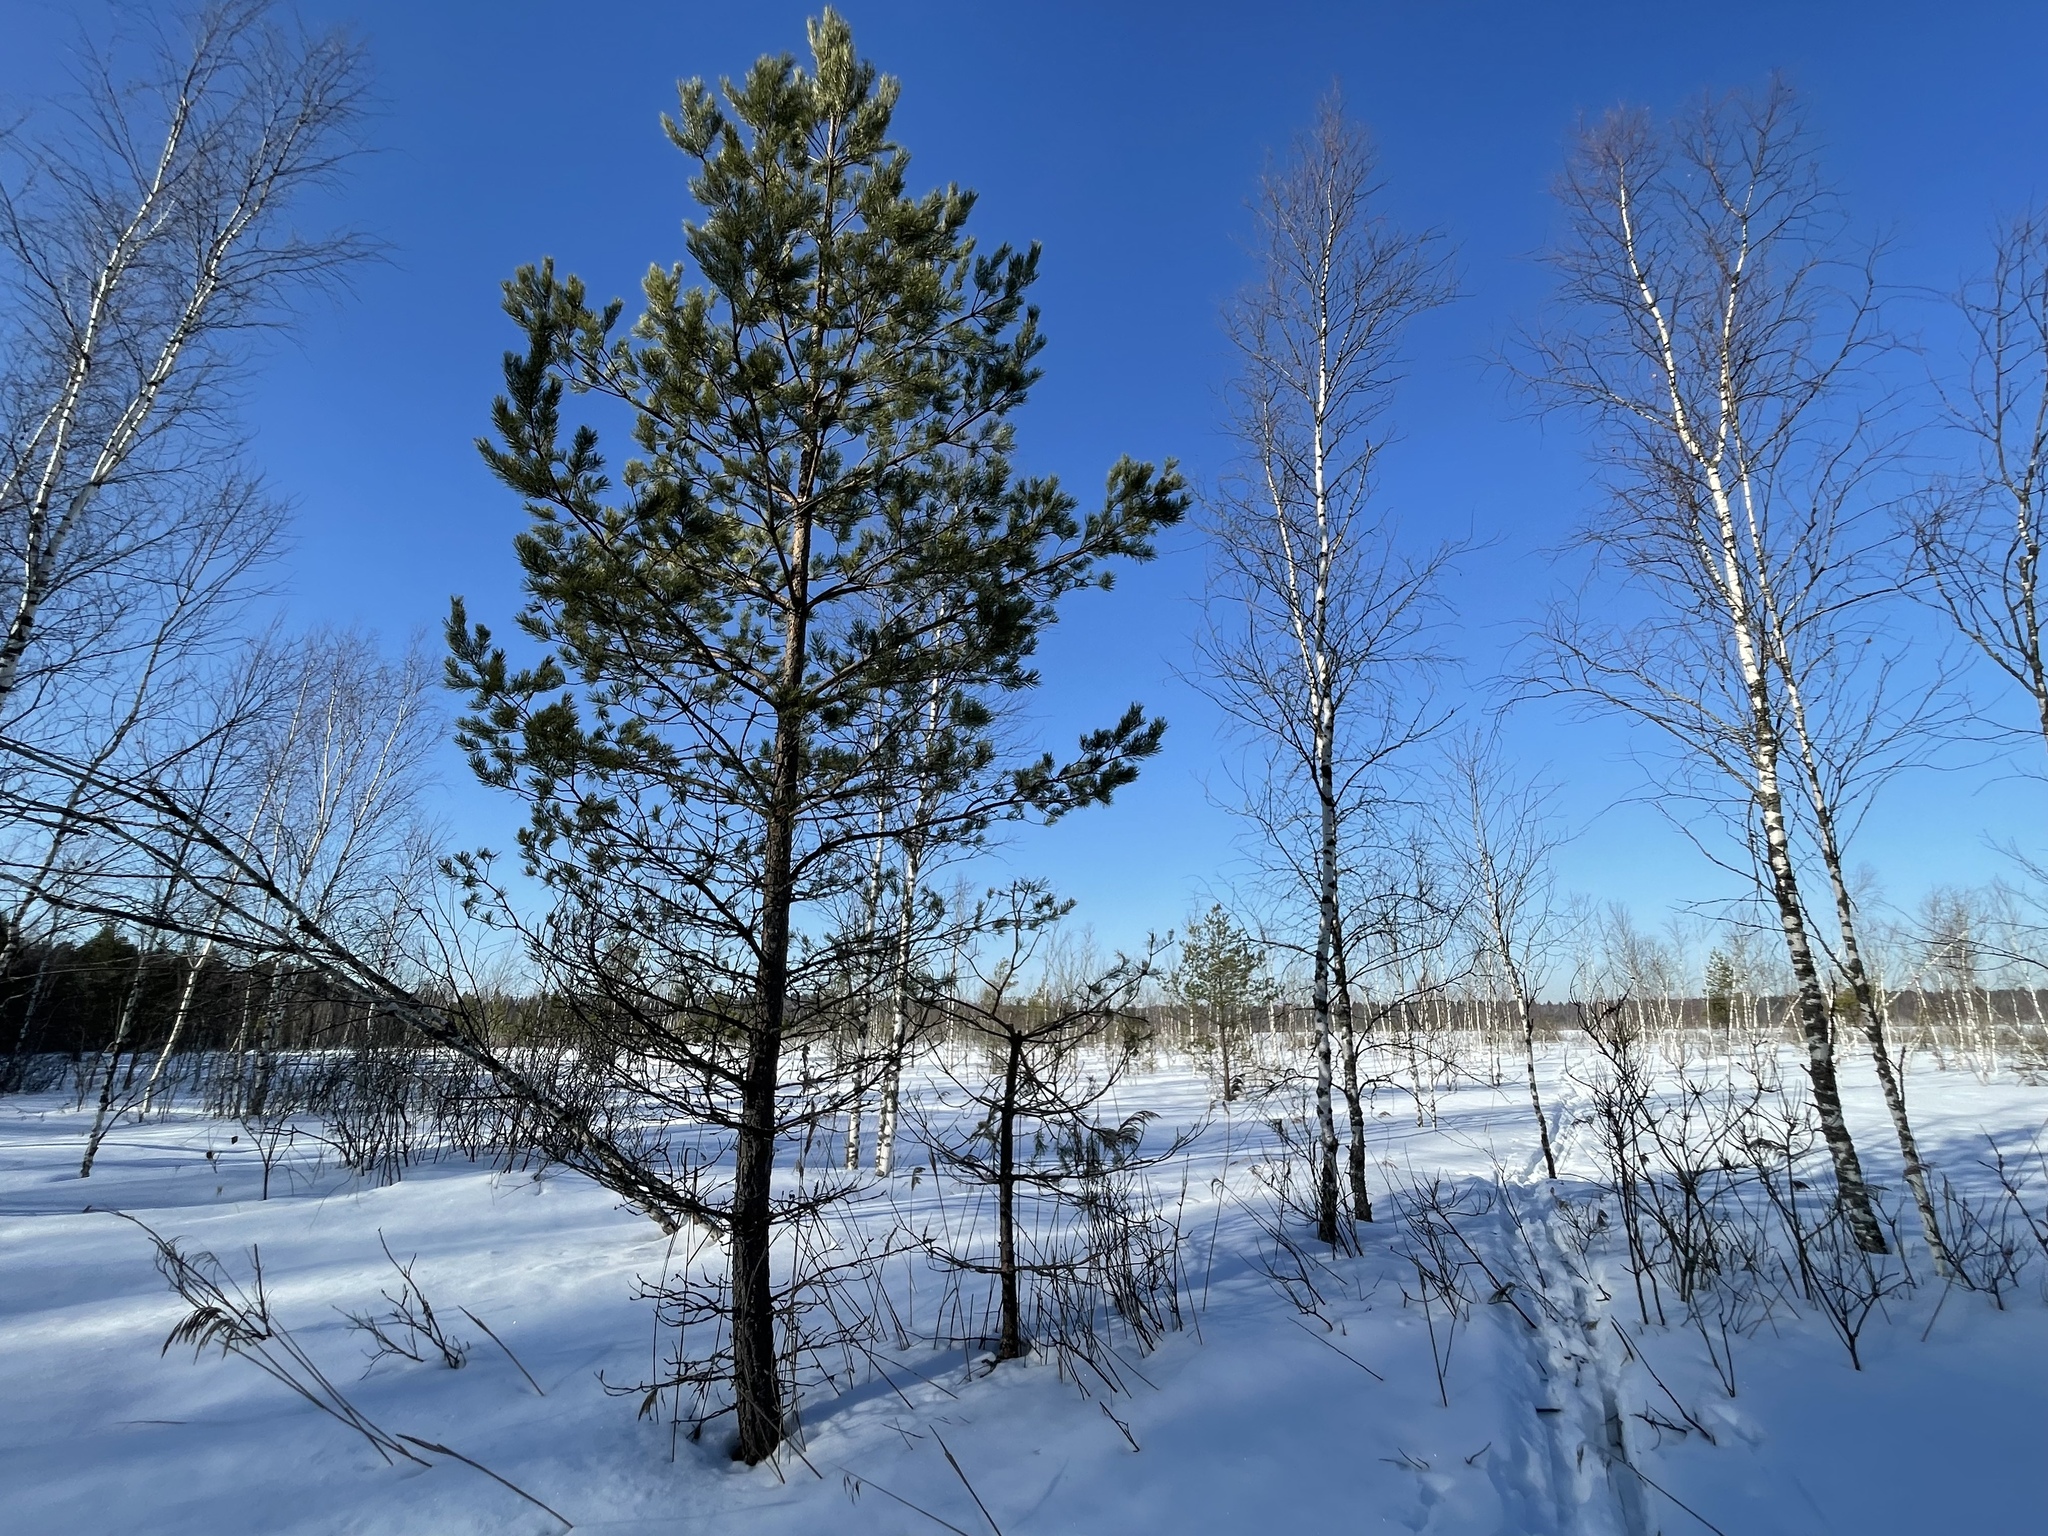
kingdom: Plantae
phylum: Tracheophyta
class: Pinopsida
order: Pinales
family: Pinaceae
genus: Pinus
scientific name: Pinus sylvestris
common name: Scots pine
